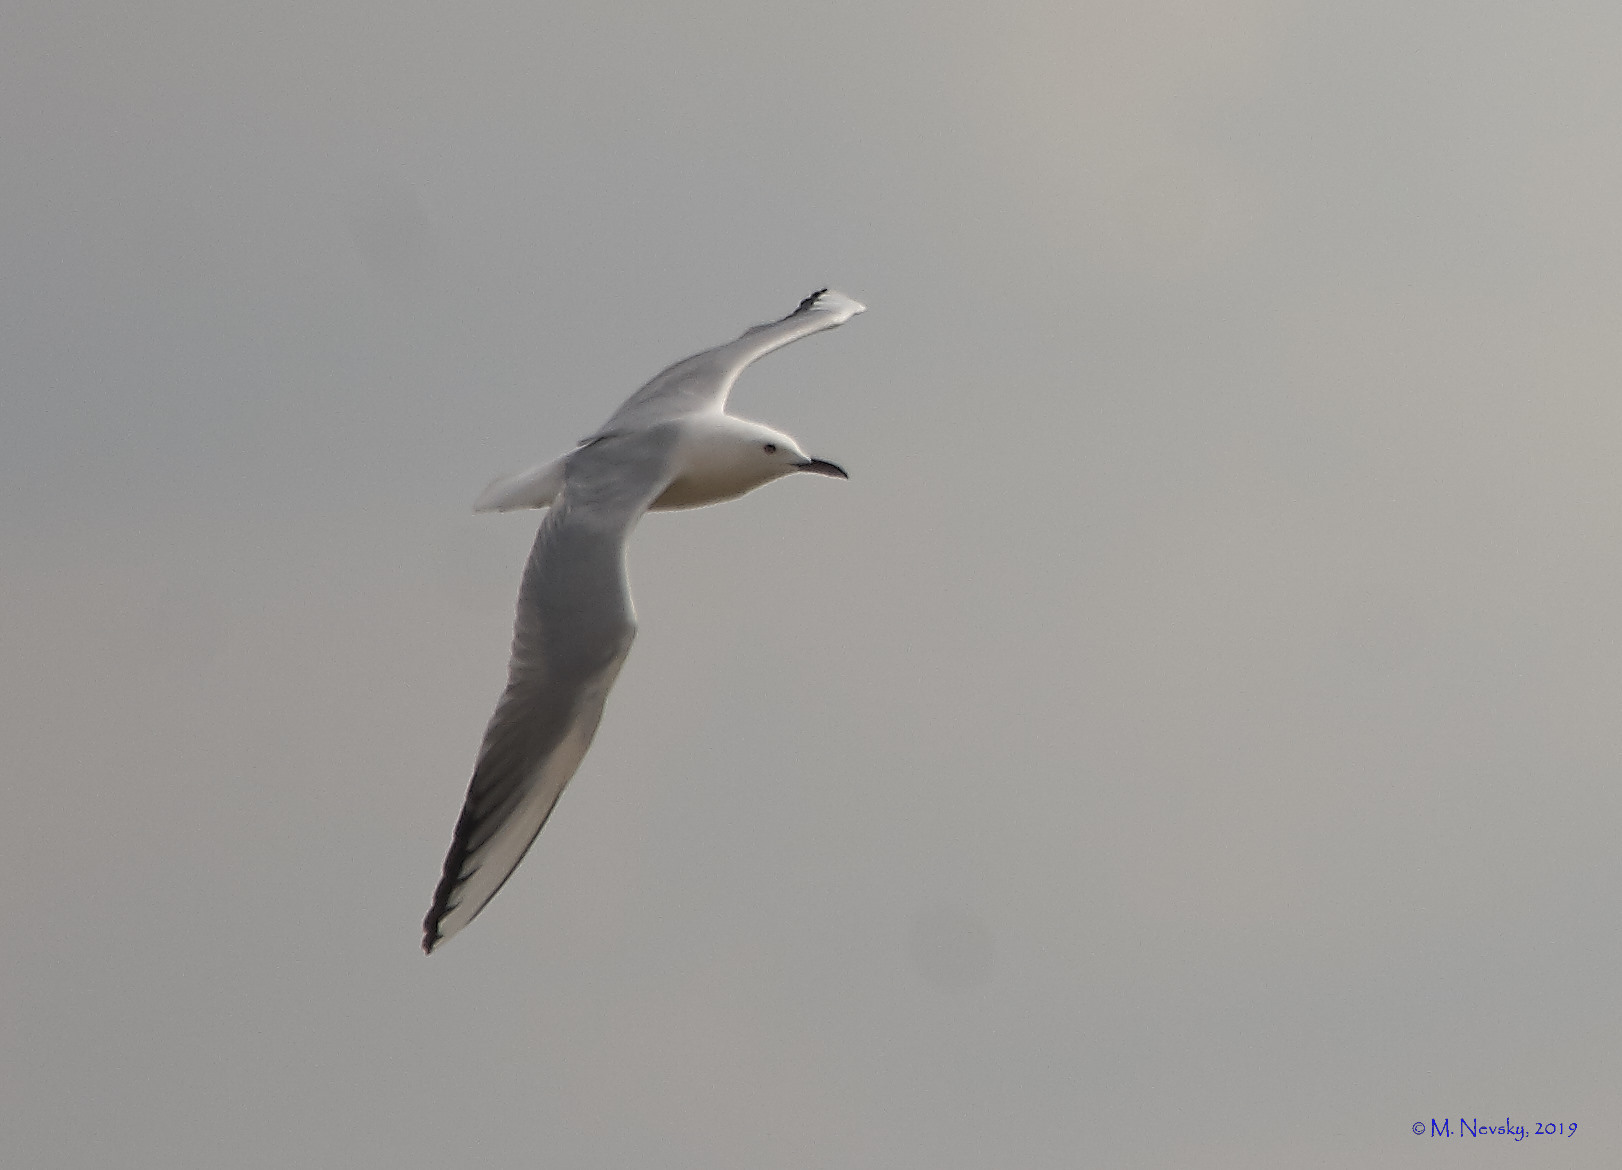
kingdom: Animalia
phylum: Chordata
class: Aves
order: Charadriiformes
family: Laridae
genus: Chroicocephalus
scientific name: Chroicocephalus genei
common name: Slender-billed gull
